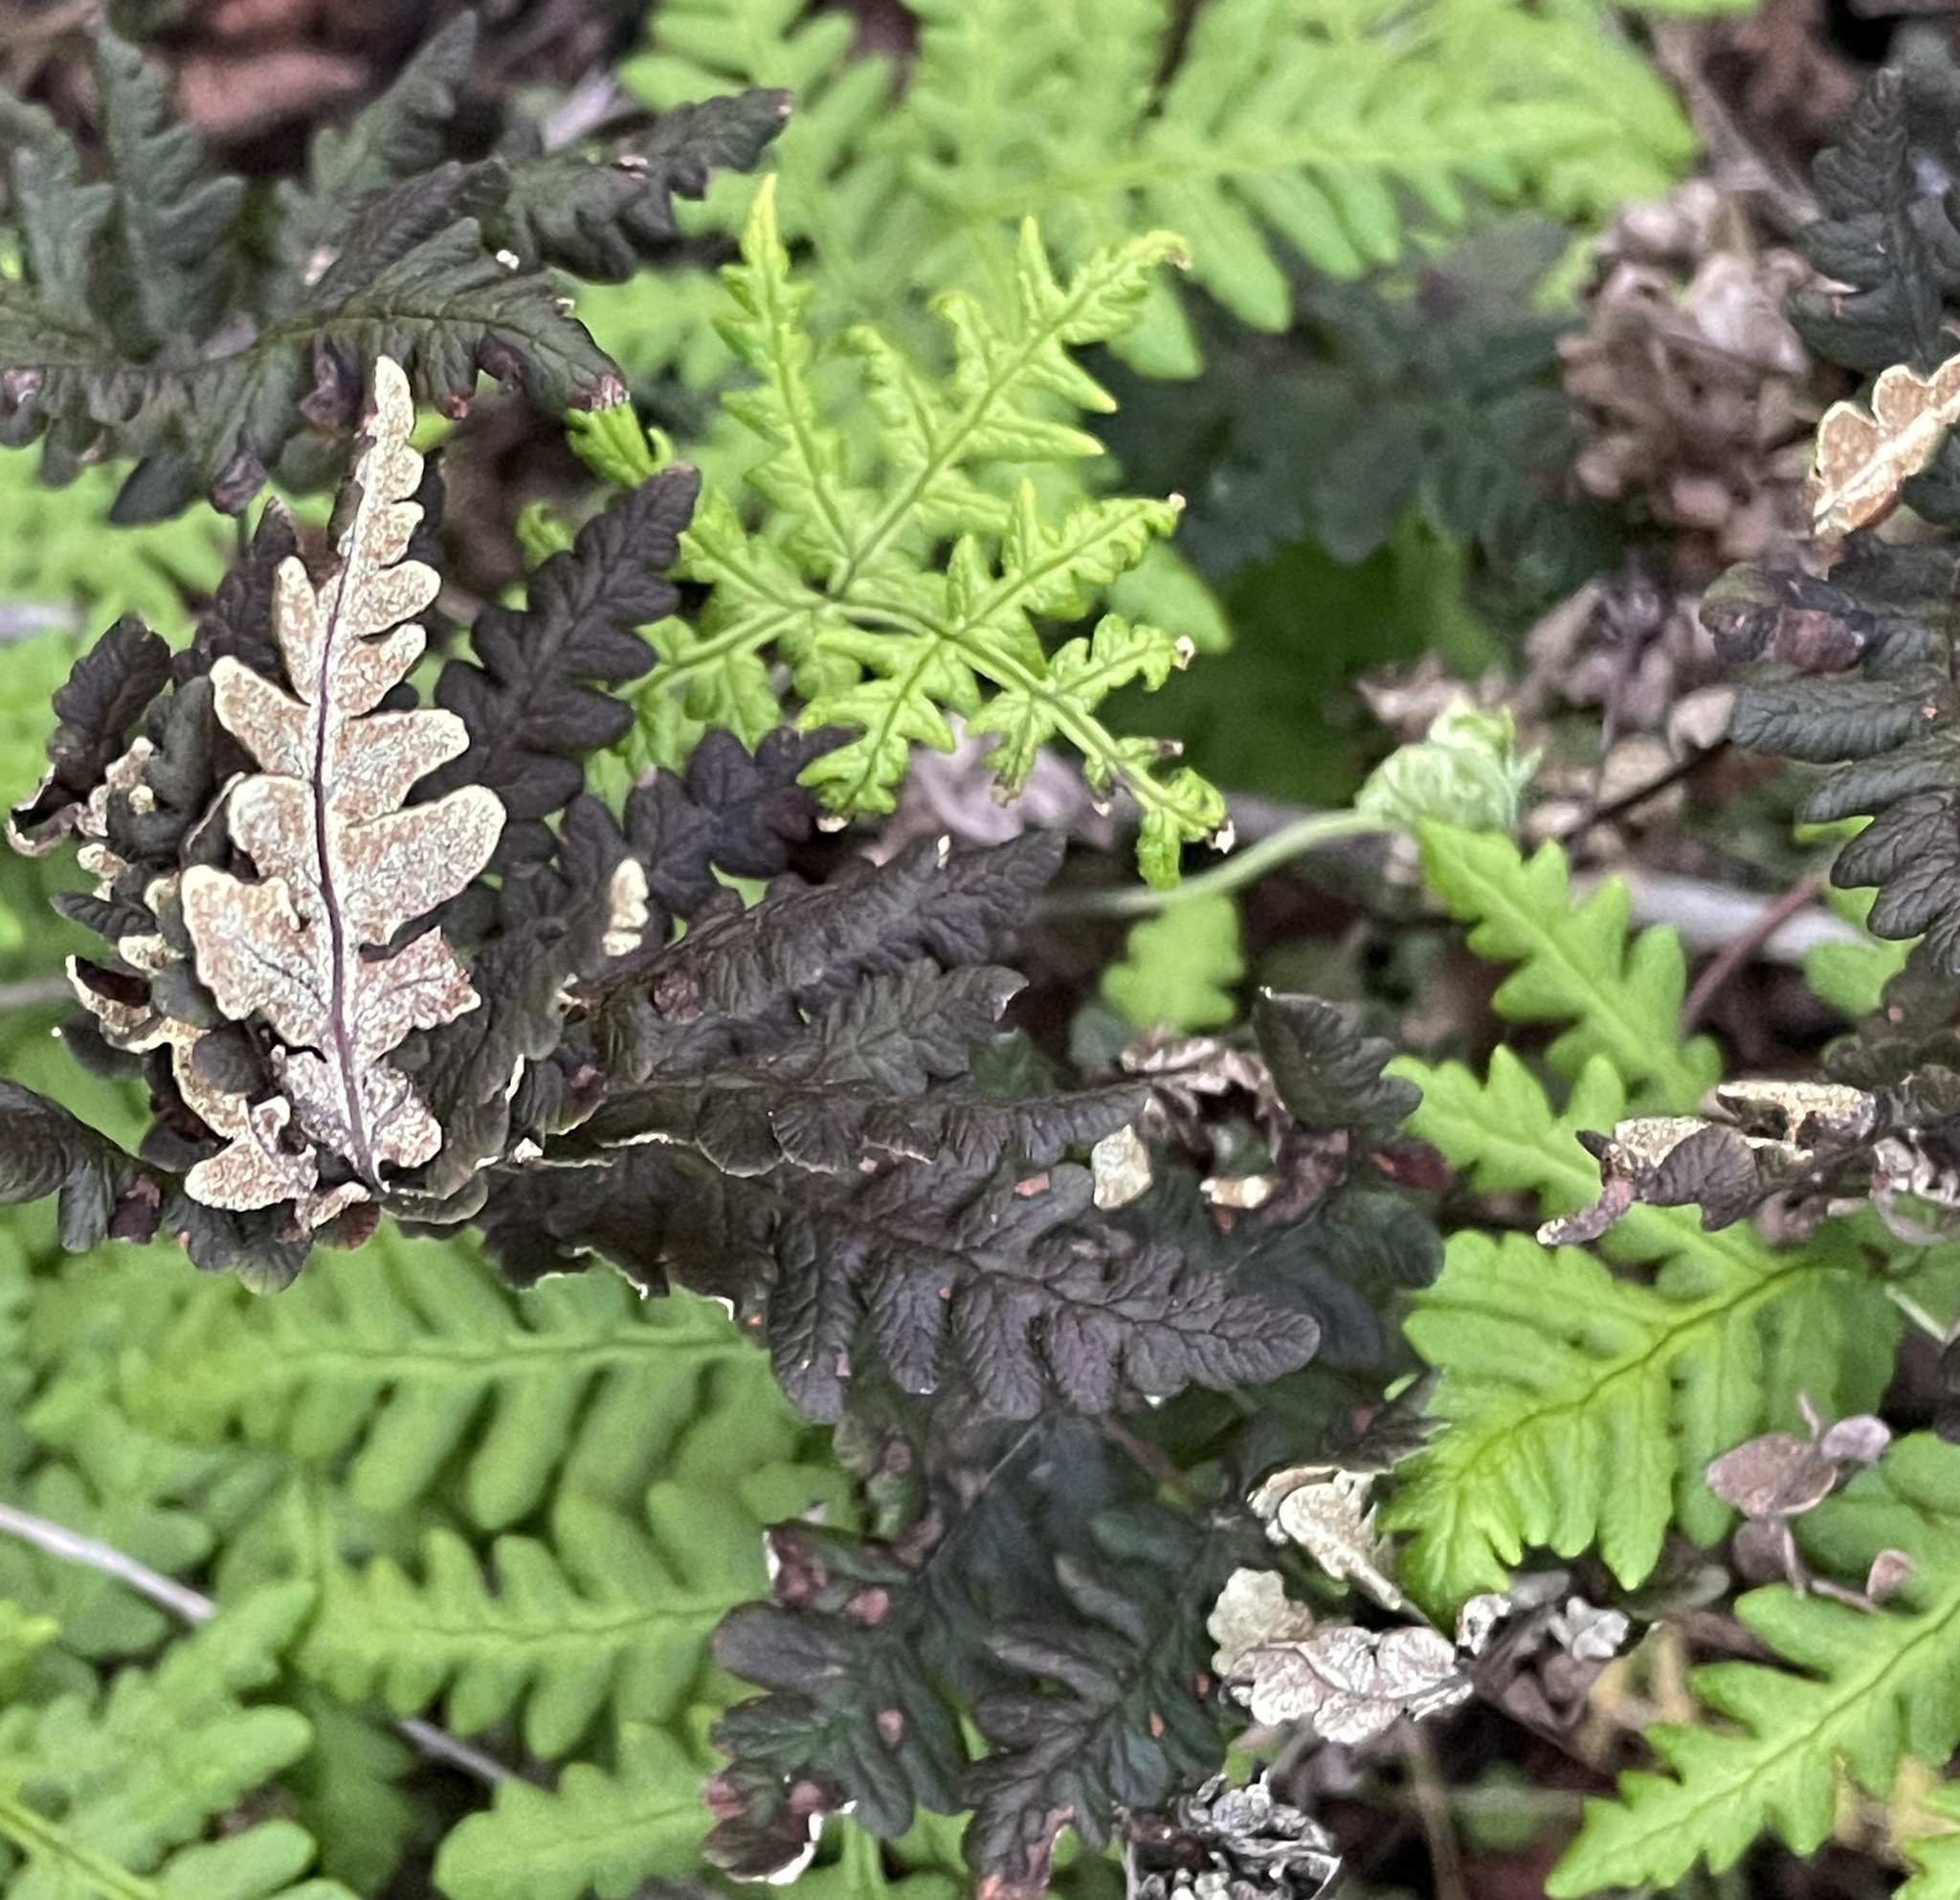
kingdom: Plantae
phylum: Tracheophyta
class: Polypodiopsida
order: Polypodiales
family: Pteridaceae
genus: Pentagramma
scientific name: Pentagramma triangularis
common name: Gold fern
